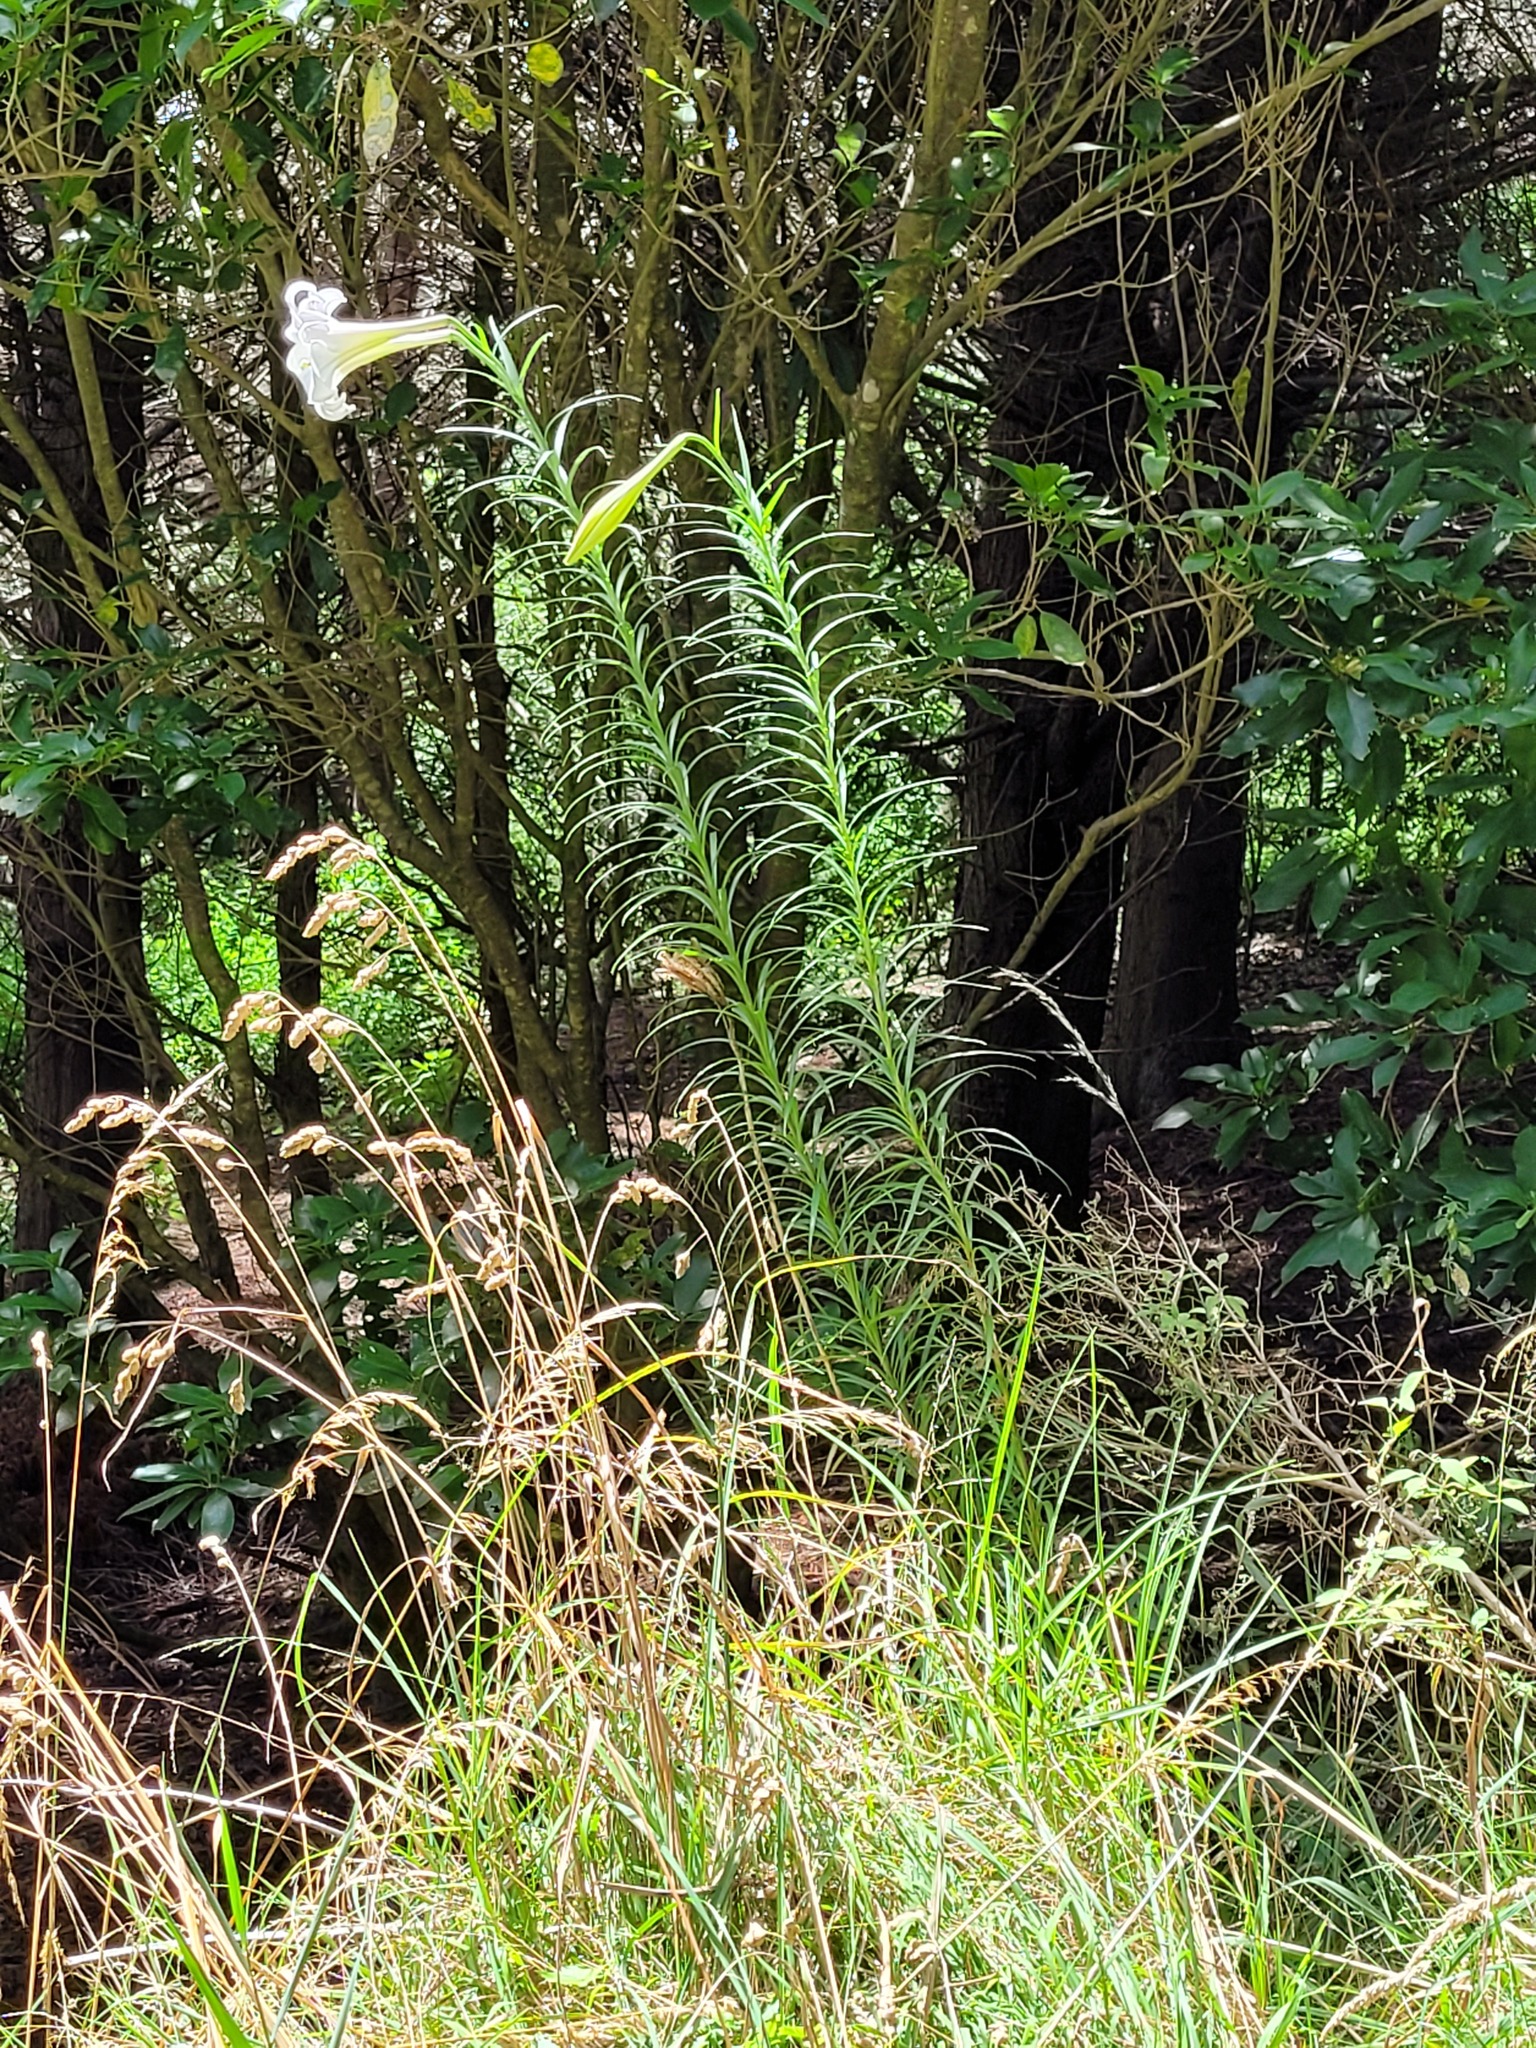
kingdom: Plantae
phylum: Tracheophyta
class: Liliopsida
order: Liliales
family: Liliaceae
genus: Lilium
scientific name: Lilium formosanum
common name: Formosa lily
